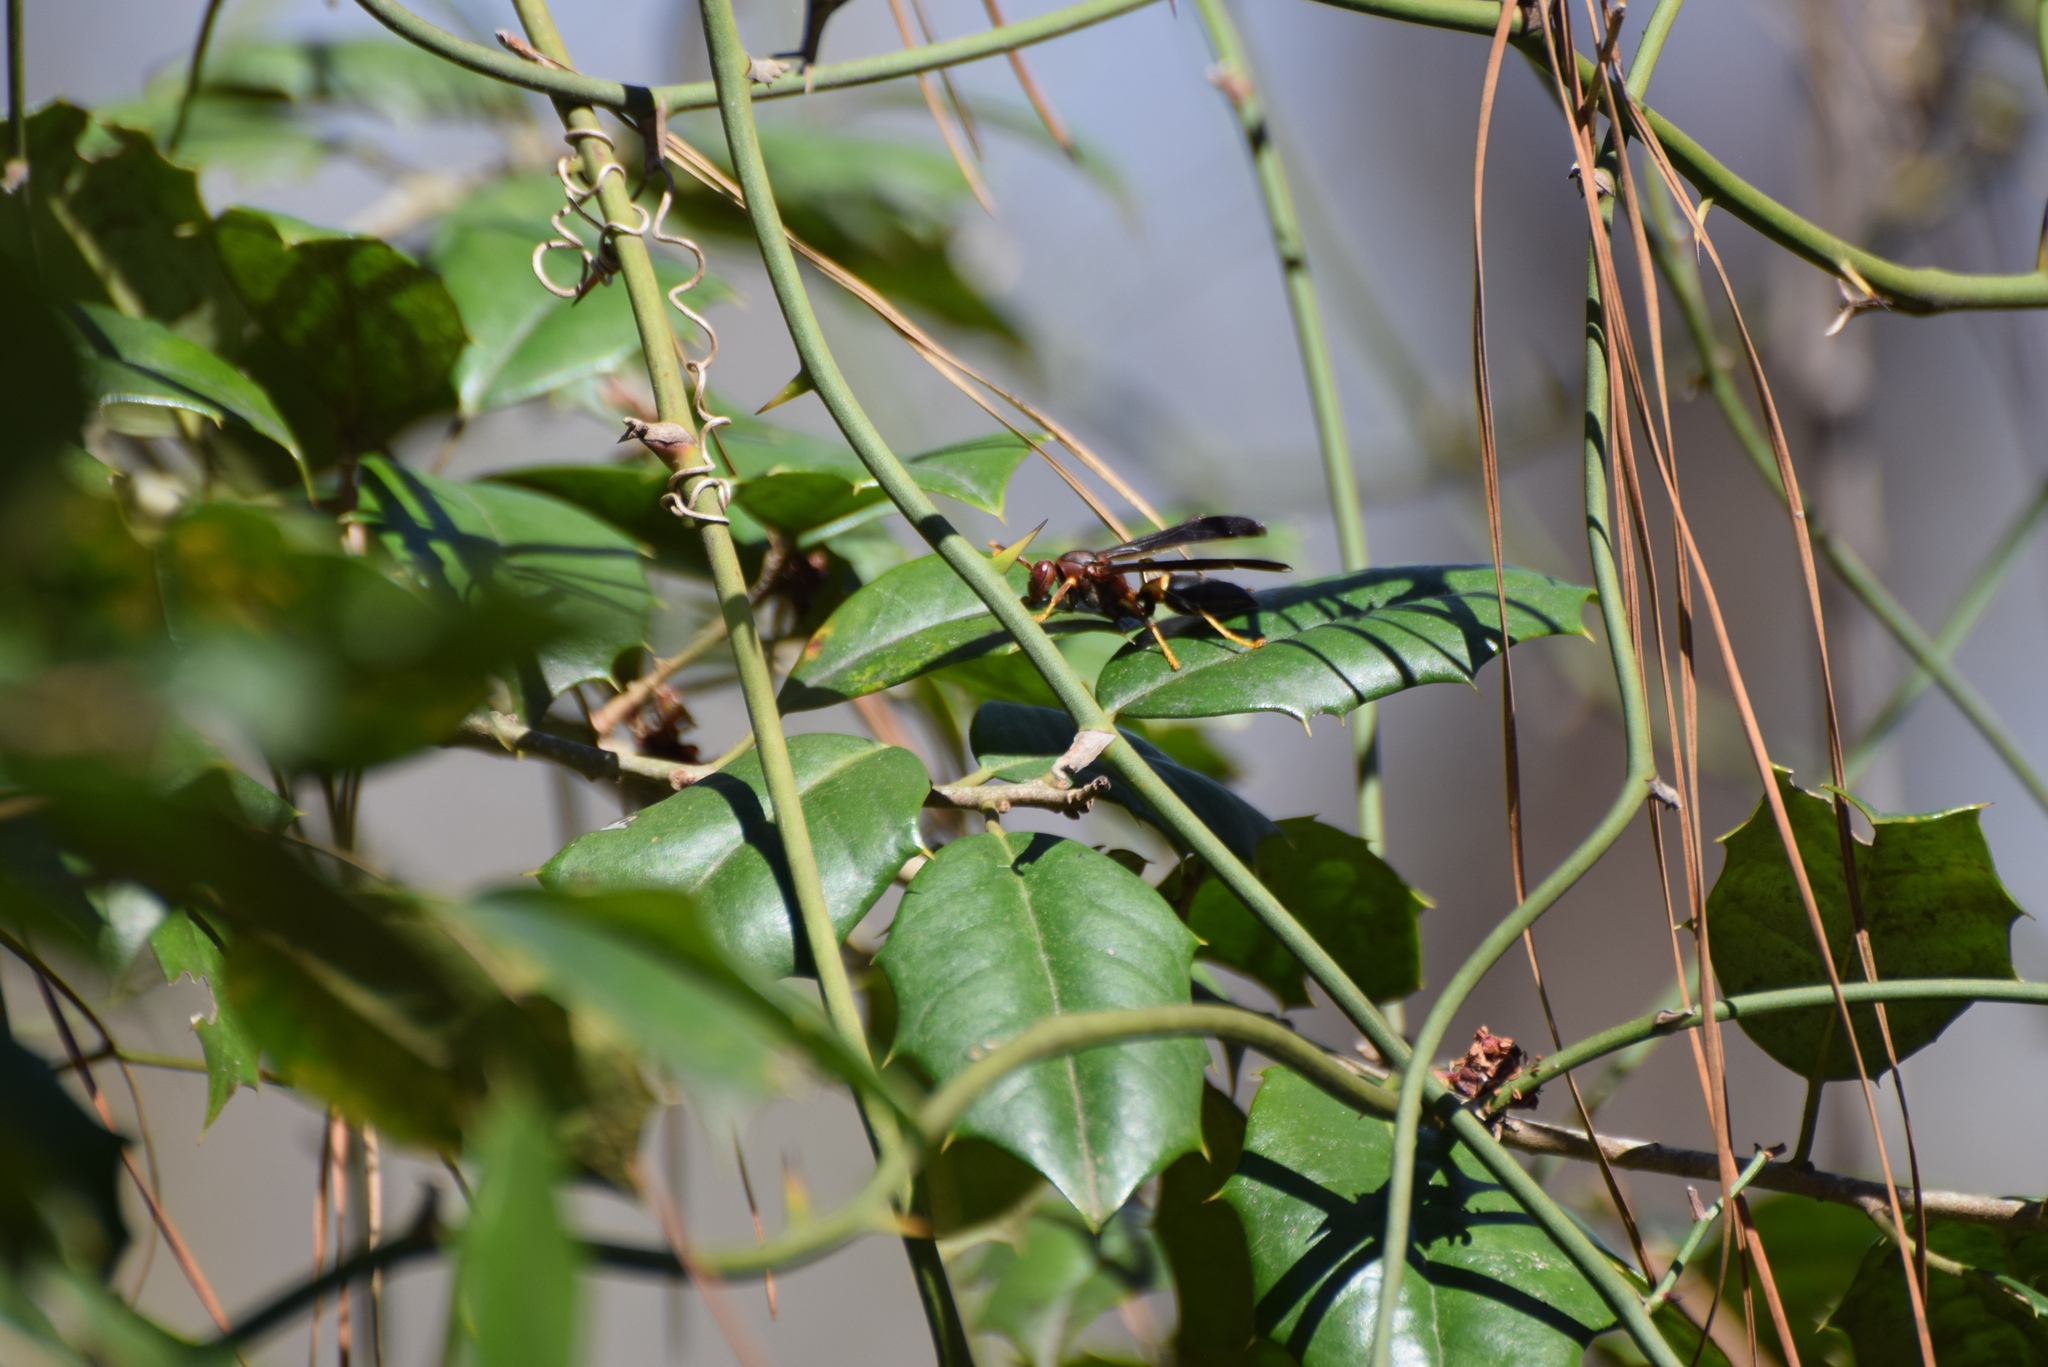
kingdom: Animalia
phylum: Arthropoda
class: Insecta
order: Hymenoptera
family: Eumenidae
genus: Polistes
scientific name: Polistes annularis
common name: Ringed paper wasp
